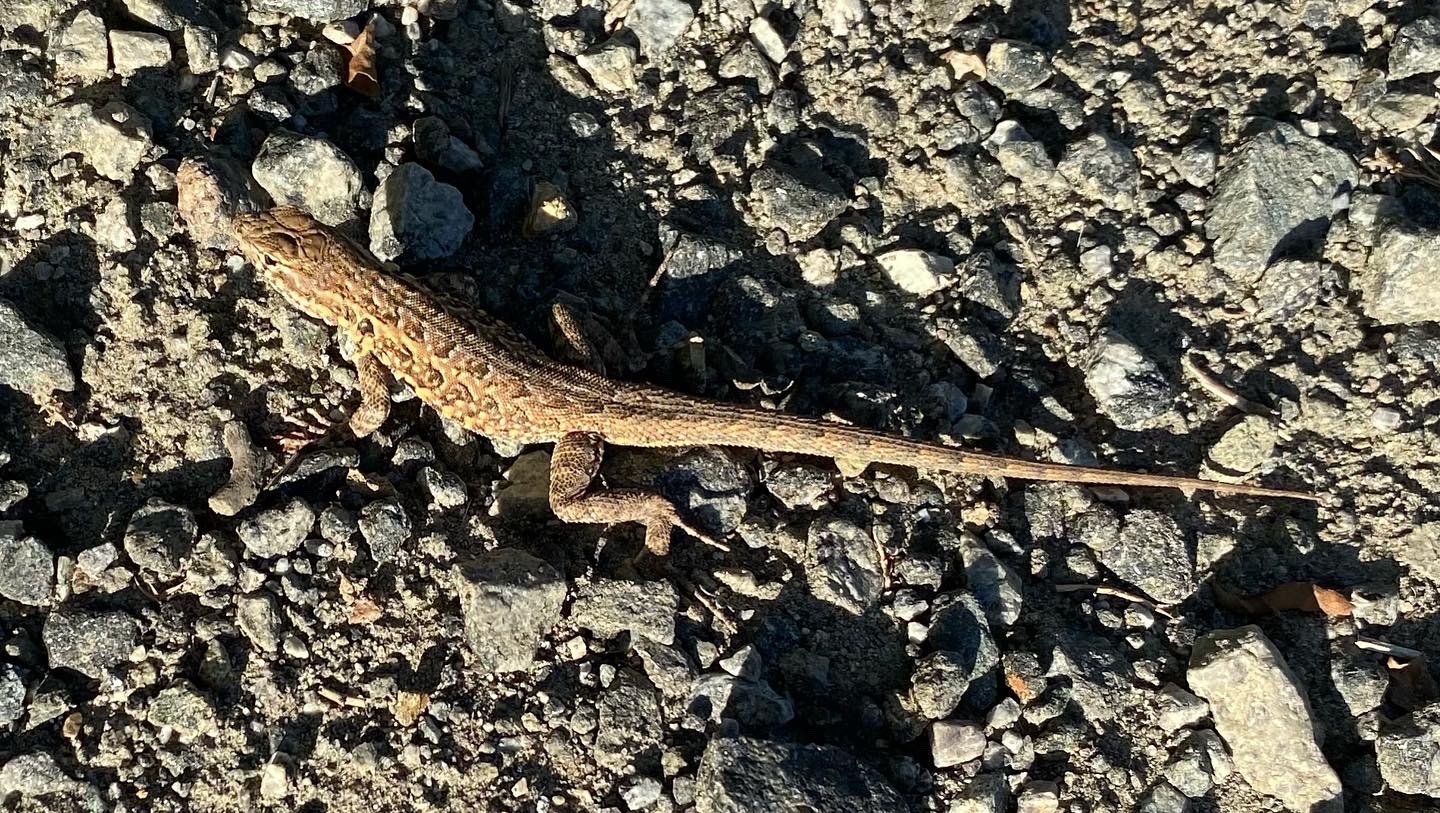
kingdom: Animalia
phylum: Chordata
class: Squamata
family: Phrynosomatidae
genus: Uta
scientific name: Uta stansburiana
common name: Side-blotched lizard
